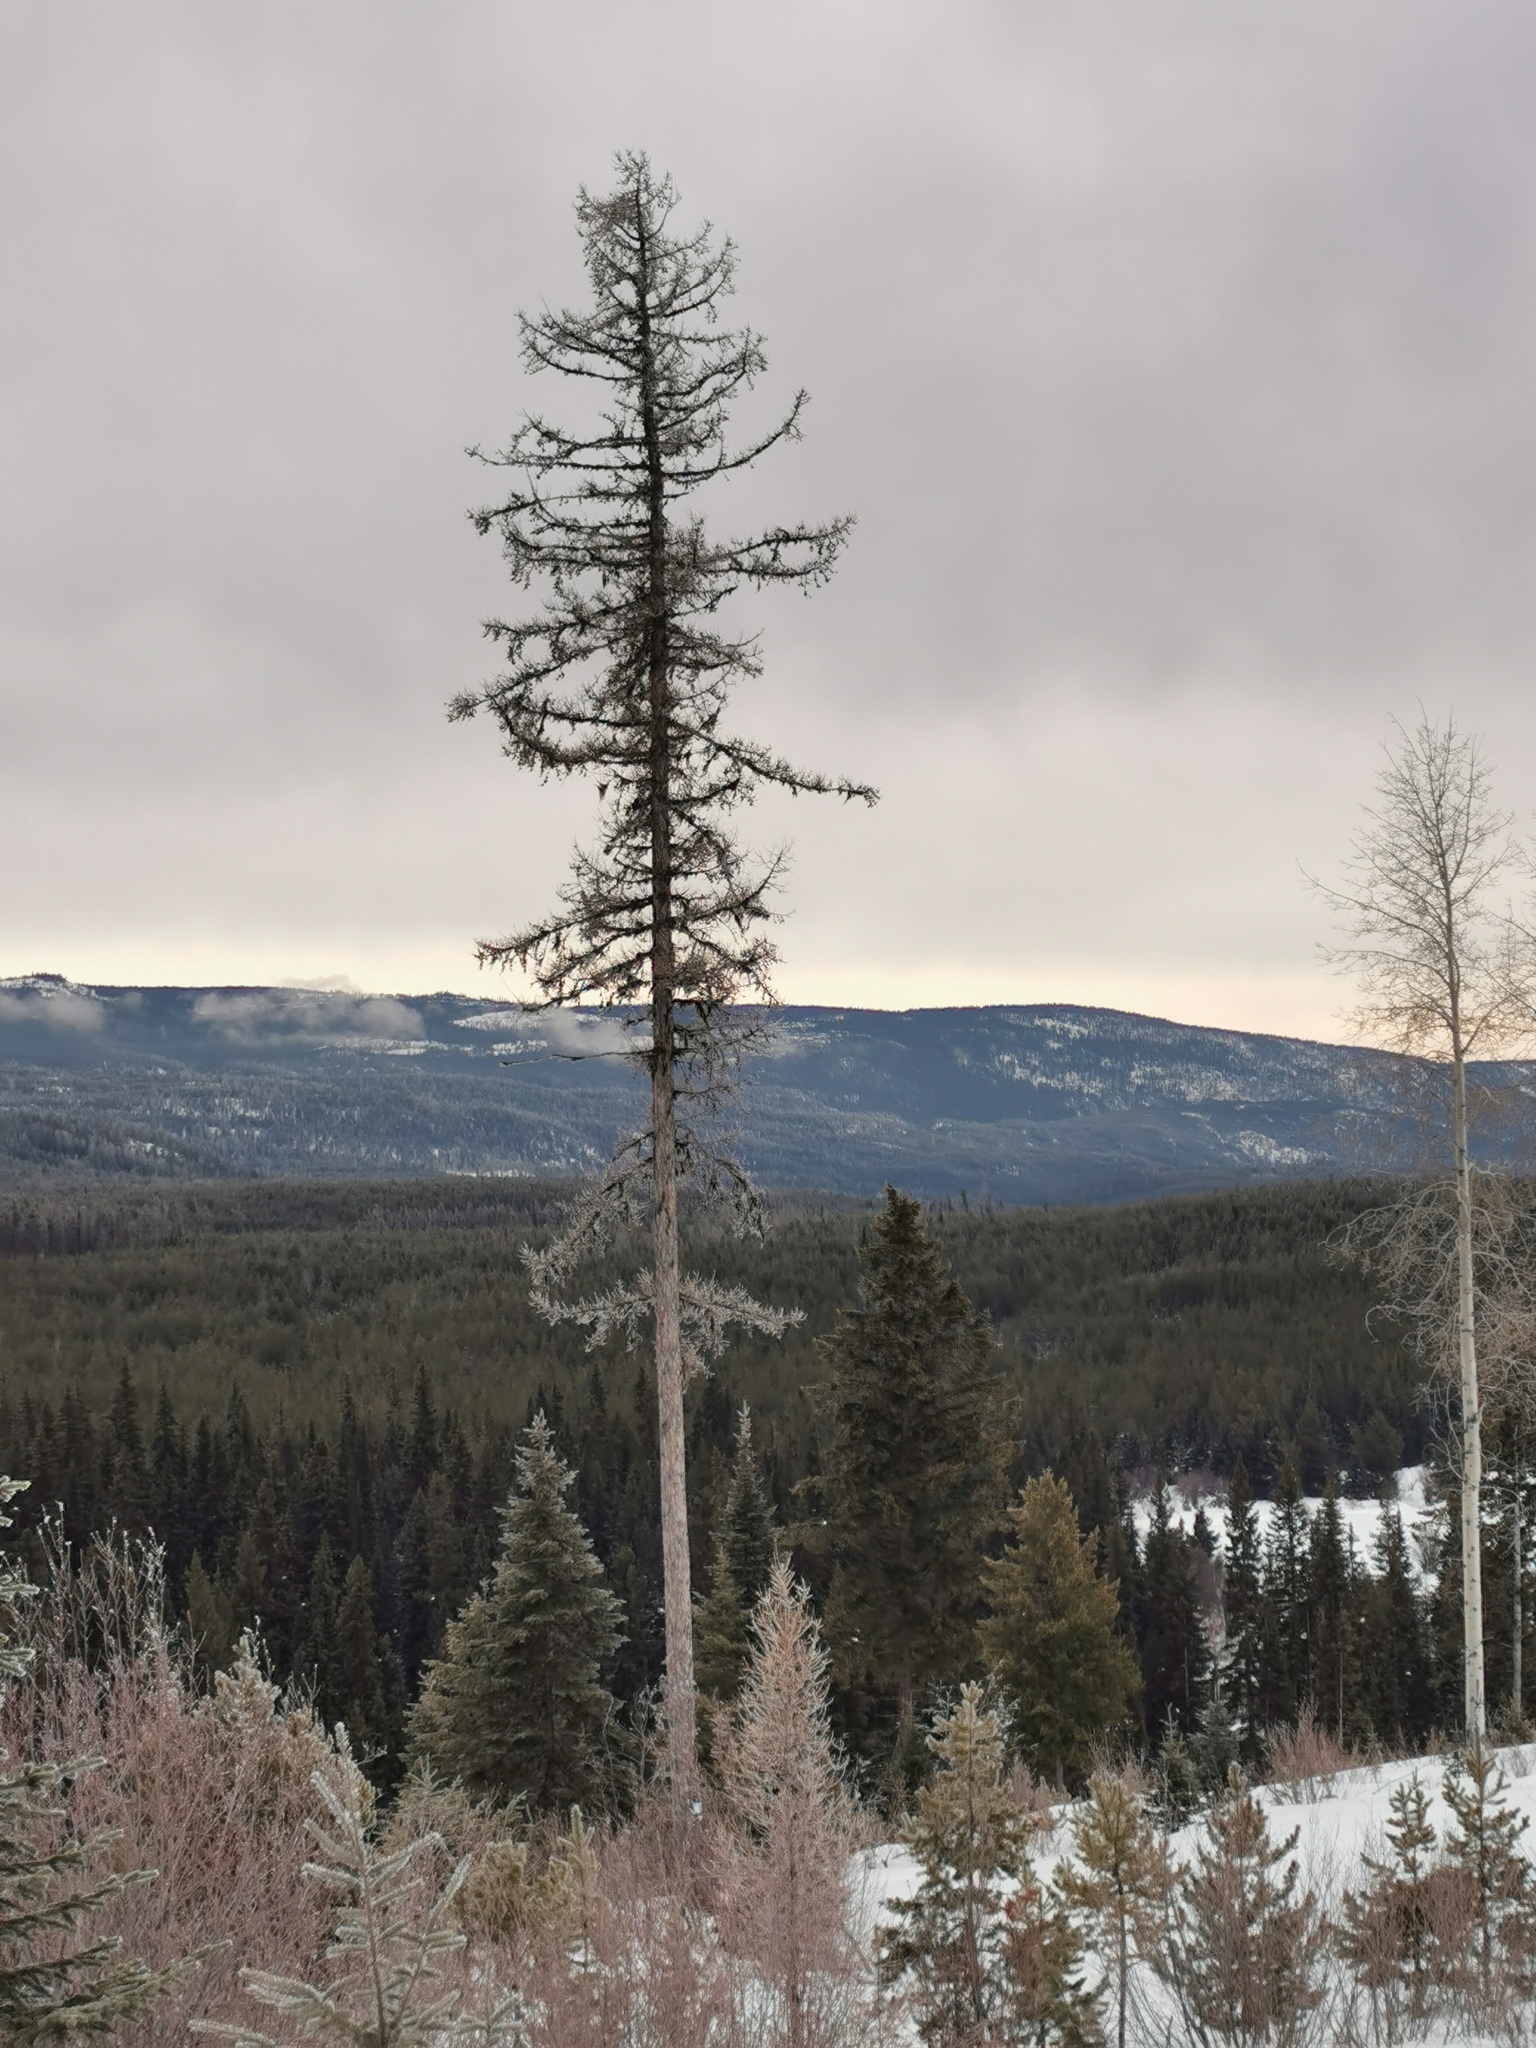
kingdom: Plantae
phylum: Tracheophyta
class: Pinopsida
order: Pinales
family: Pinaceae
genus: Larix
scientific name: Larix occidentalis
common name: Western larch
